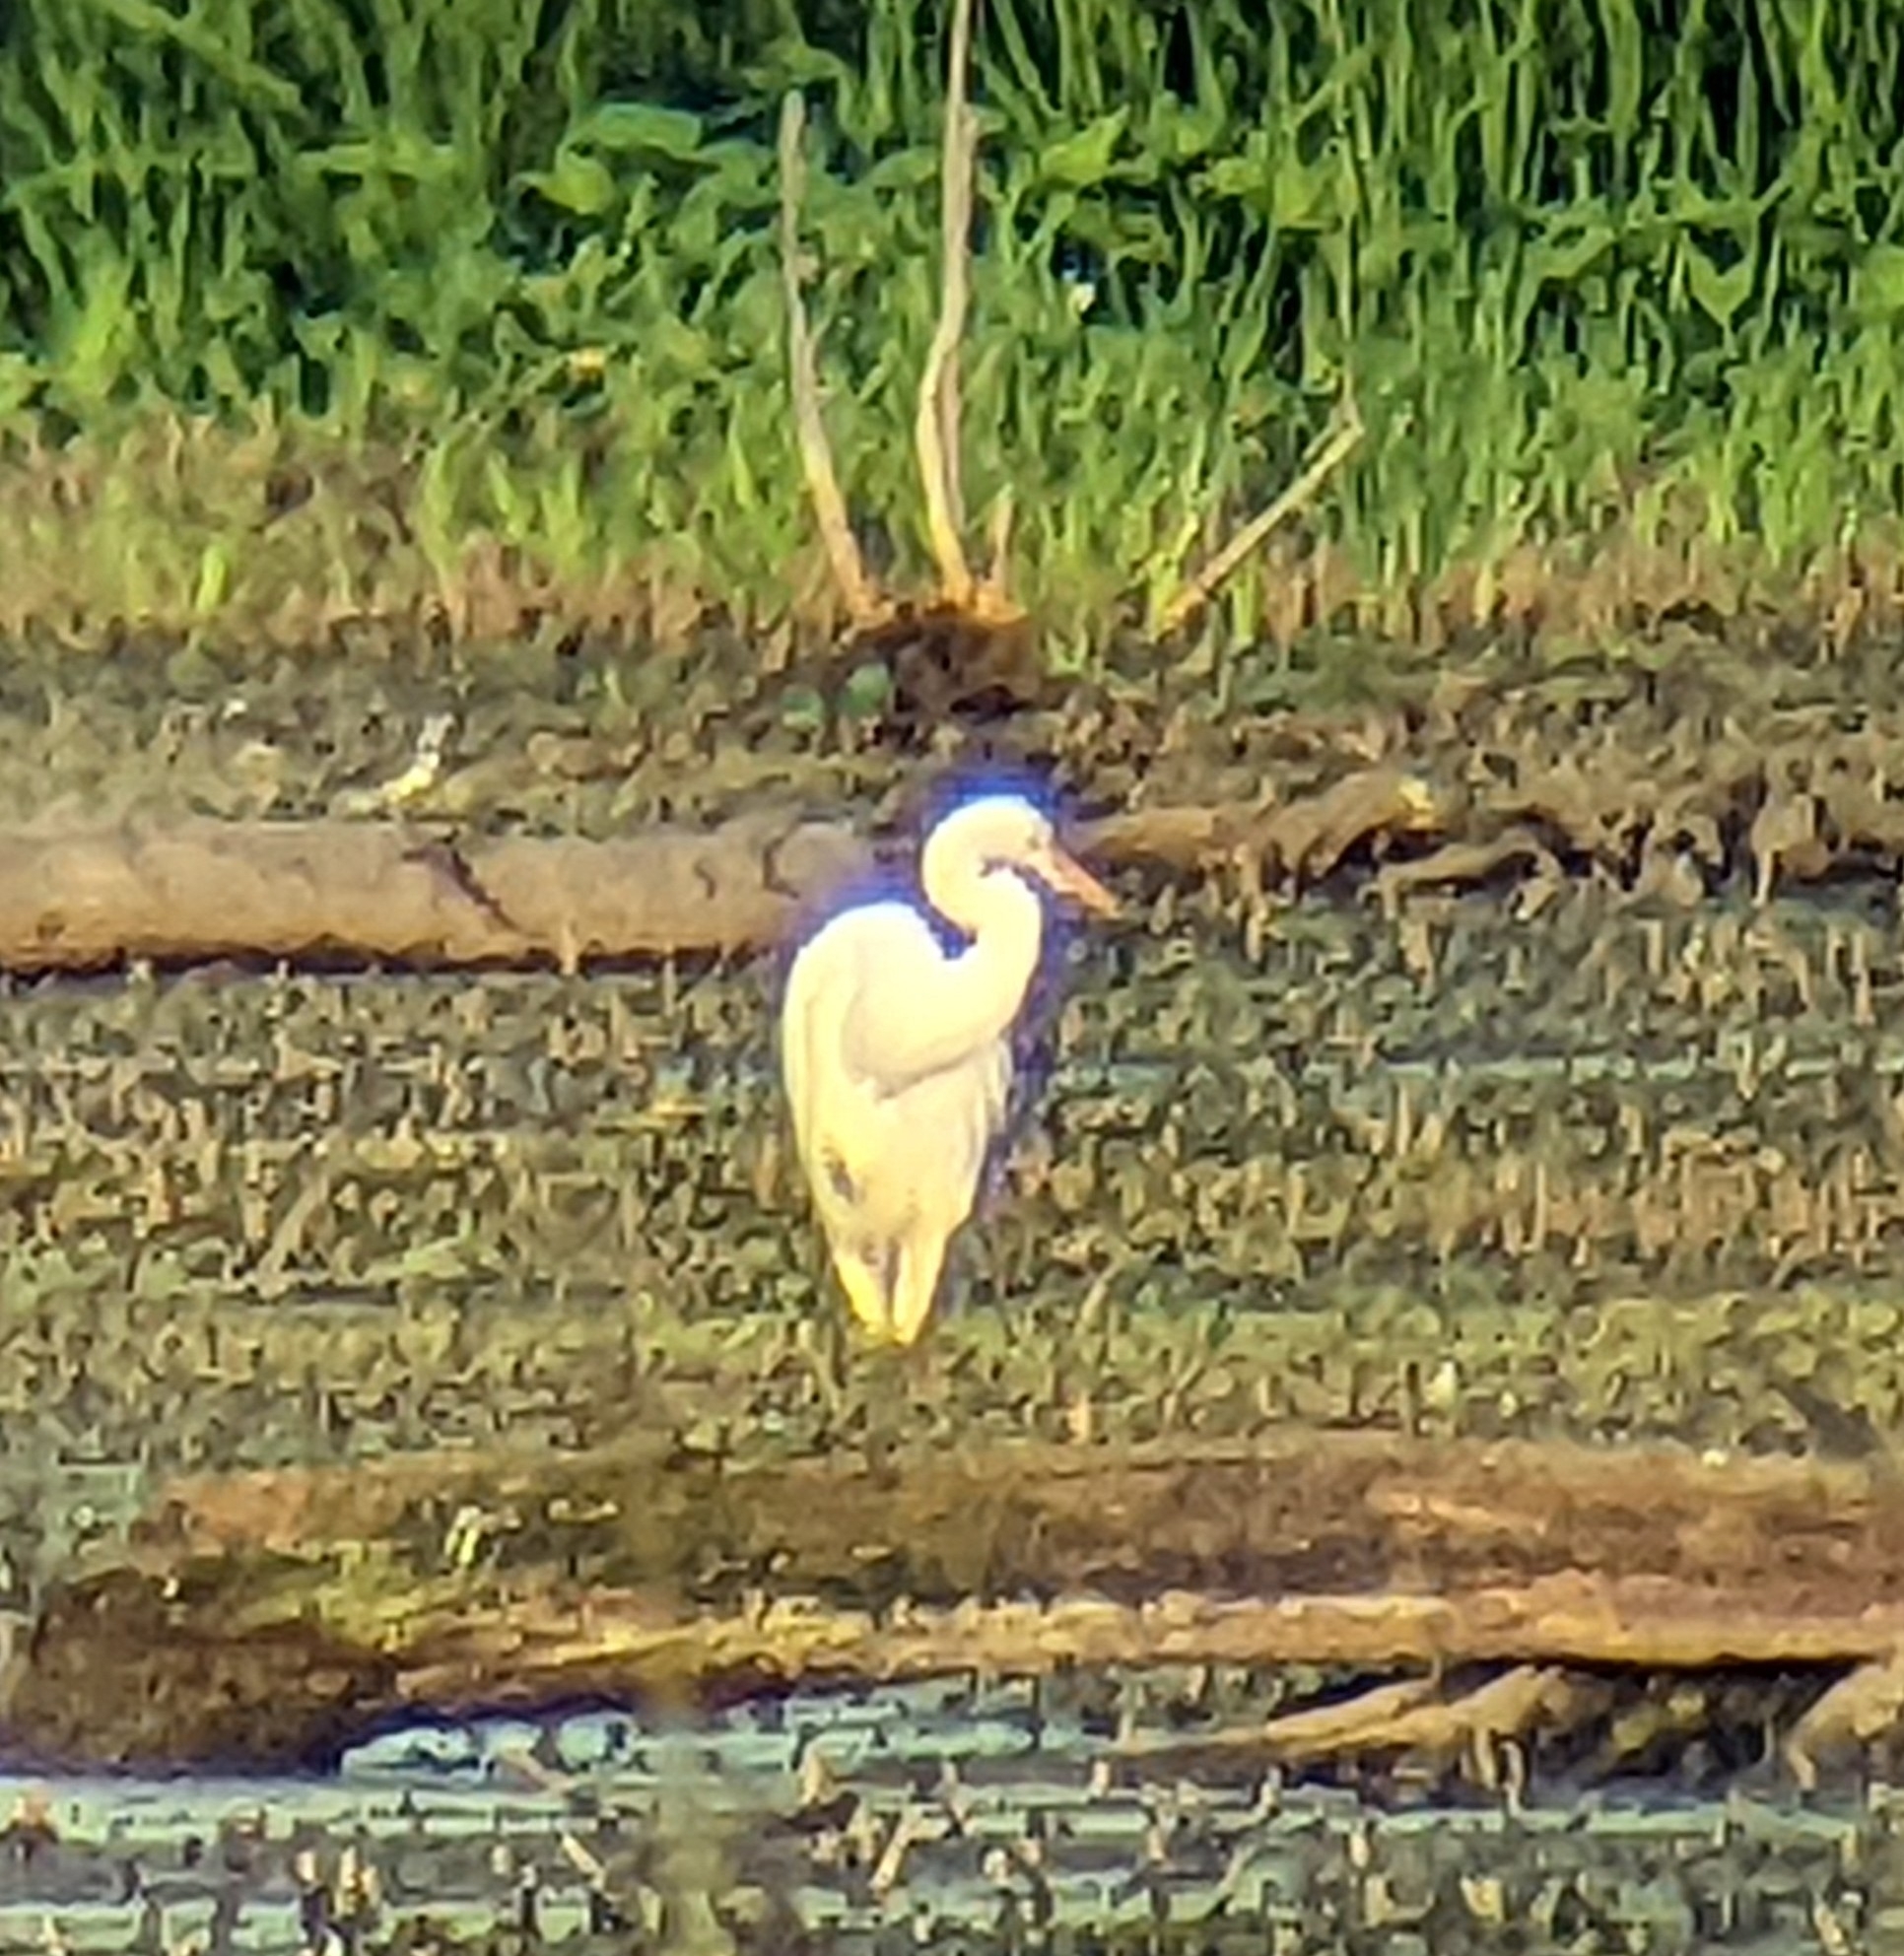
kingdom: Animalia
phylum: Chordata
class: Aves
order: Pelecaniformes
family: Ardeidae
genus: Ardea
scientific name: Ardea alba
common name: Great egret
